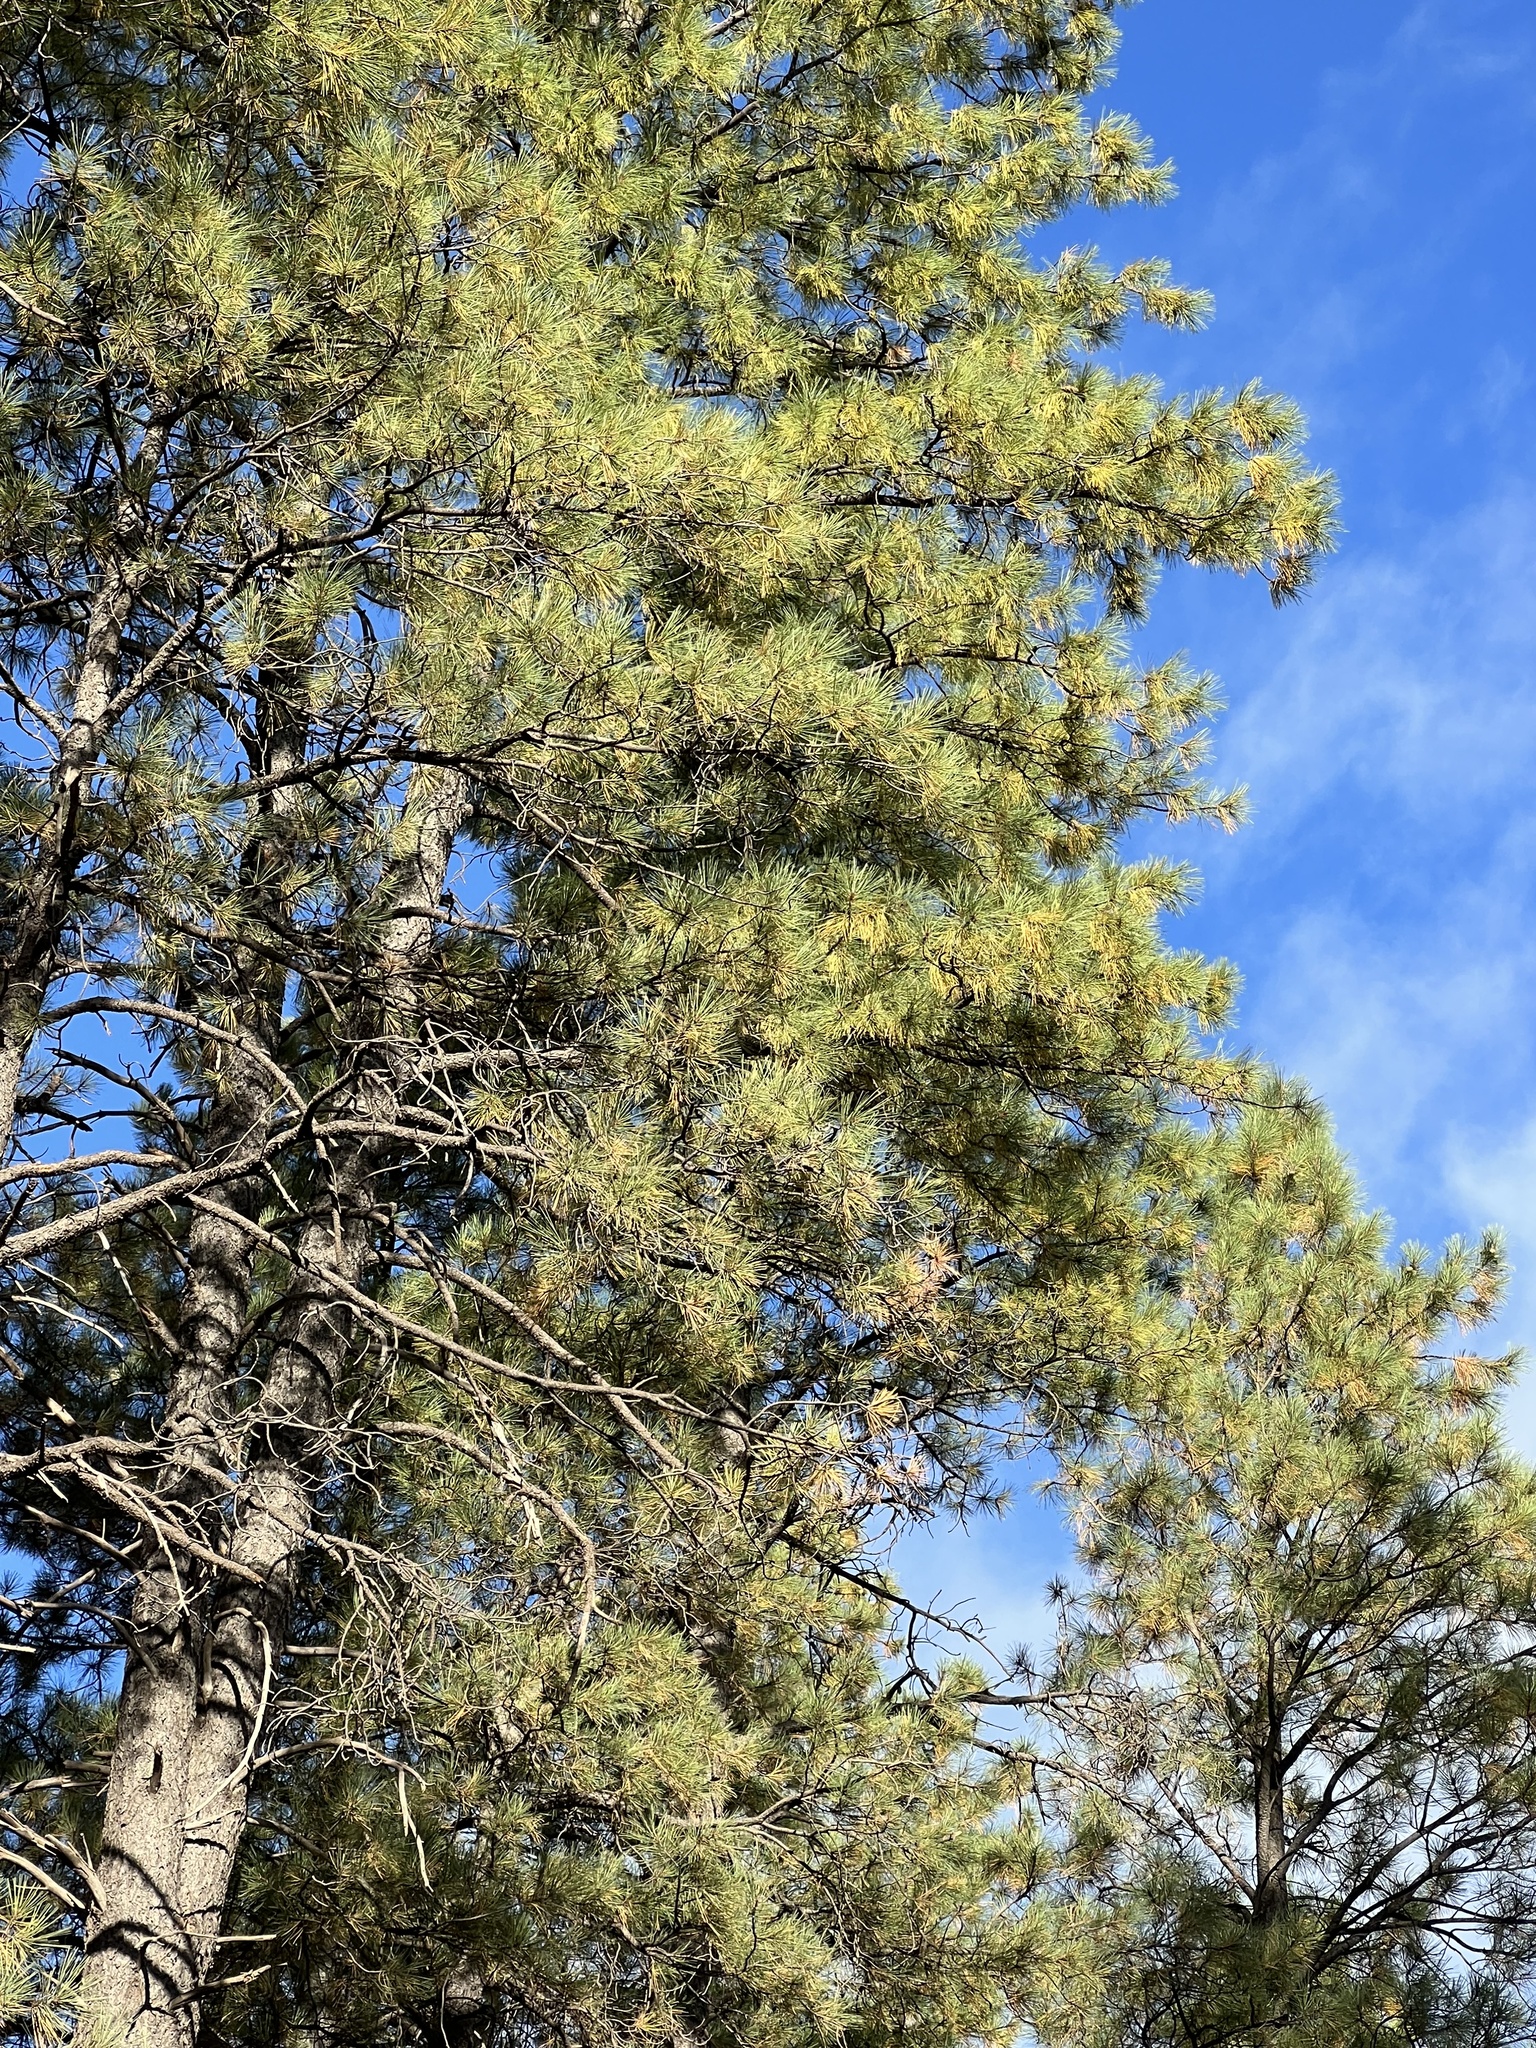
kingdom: Plantae
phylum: Tracheophyta
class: Pinopsida
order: Pinales
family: Pinaceae
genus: Pinus
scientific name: Pinus ponderosa
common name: Western yellow-pine
